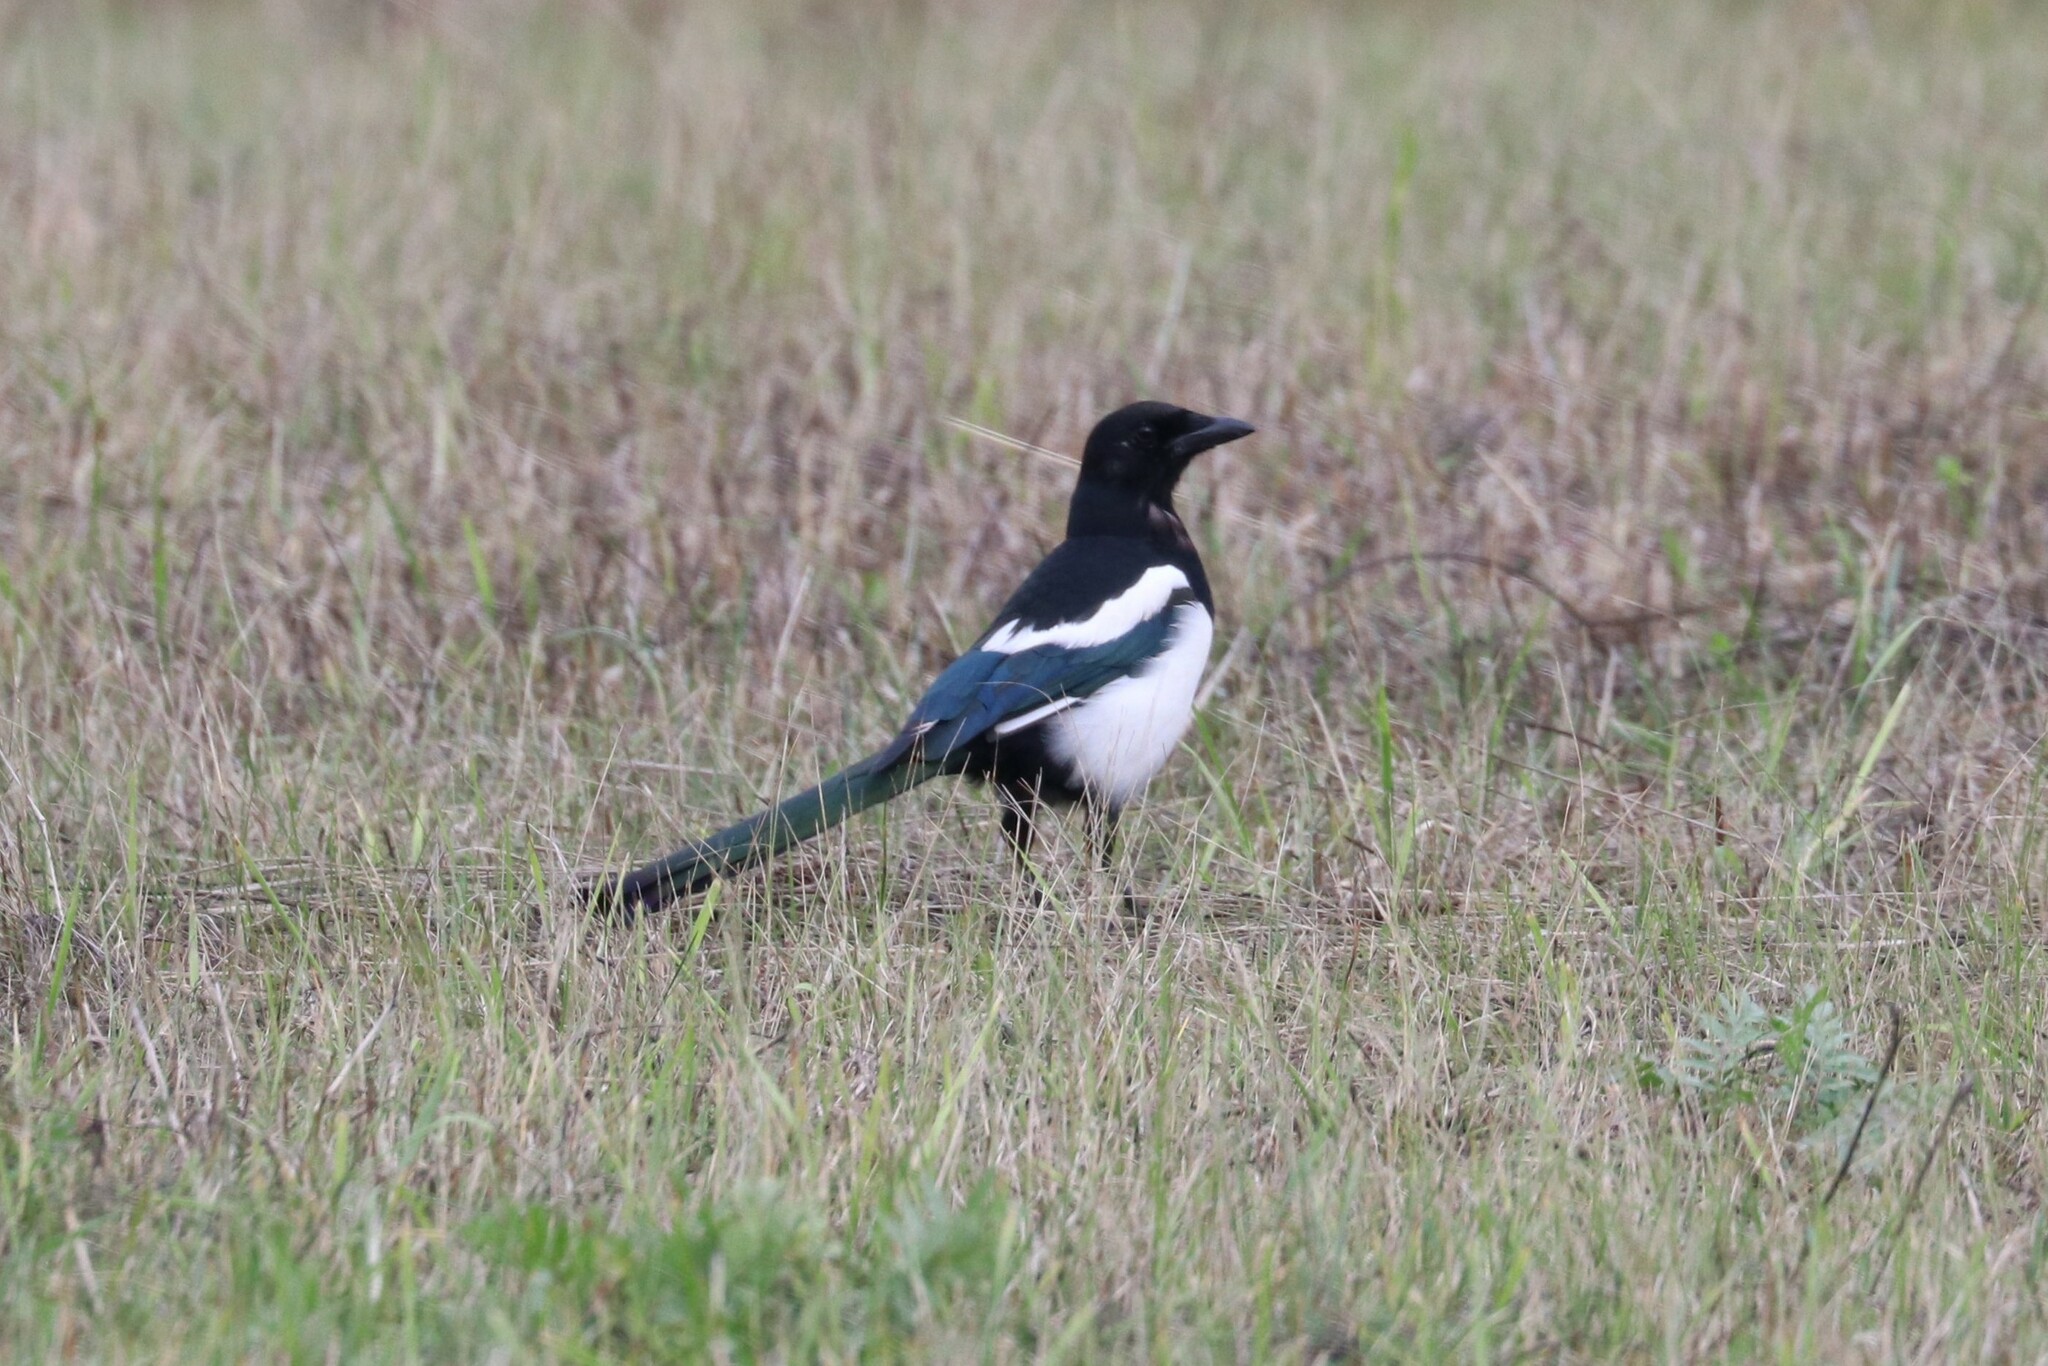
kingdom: Animalia
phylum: Chordata
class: Aves
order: Passeriformes
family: Corvidae
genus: Pica
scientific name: Pica pica
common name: Eurasian magpie
